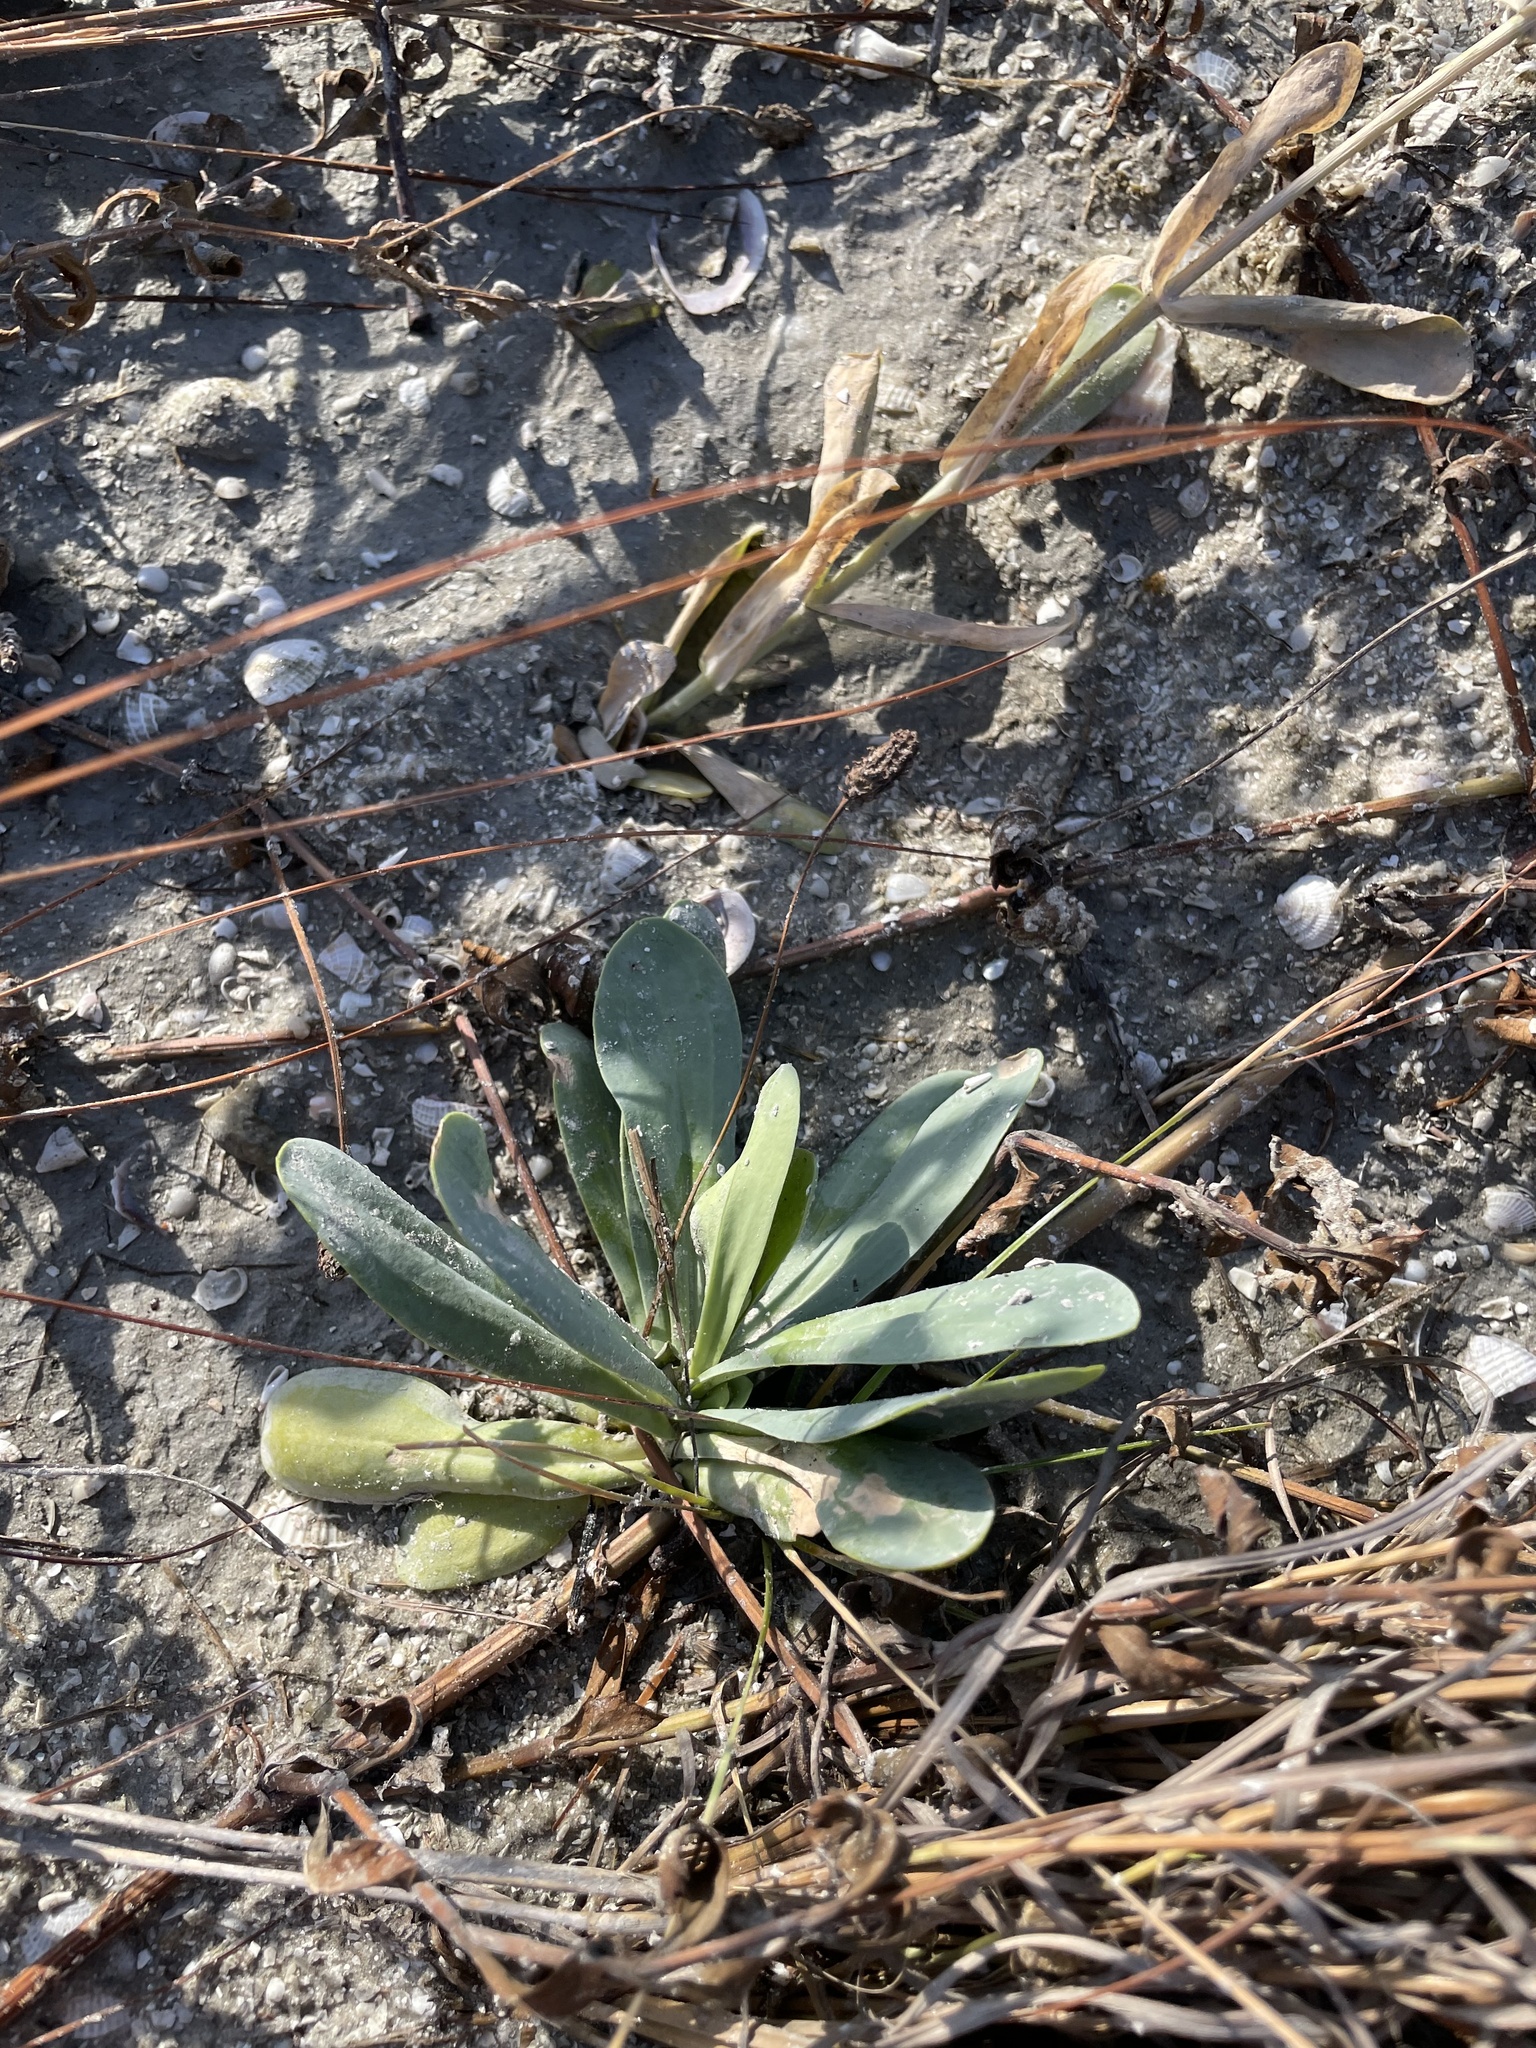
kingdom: Plantae
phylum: Tracheophyta
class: Magnoliopsida
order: Gentianales
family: Gentianaceae
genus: Eustoma
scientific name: Eustoma exaltatum
